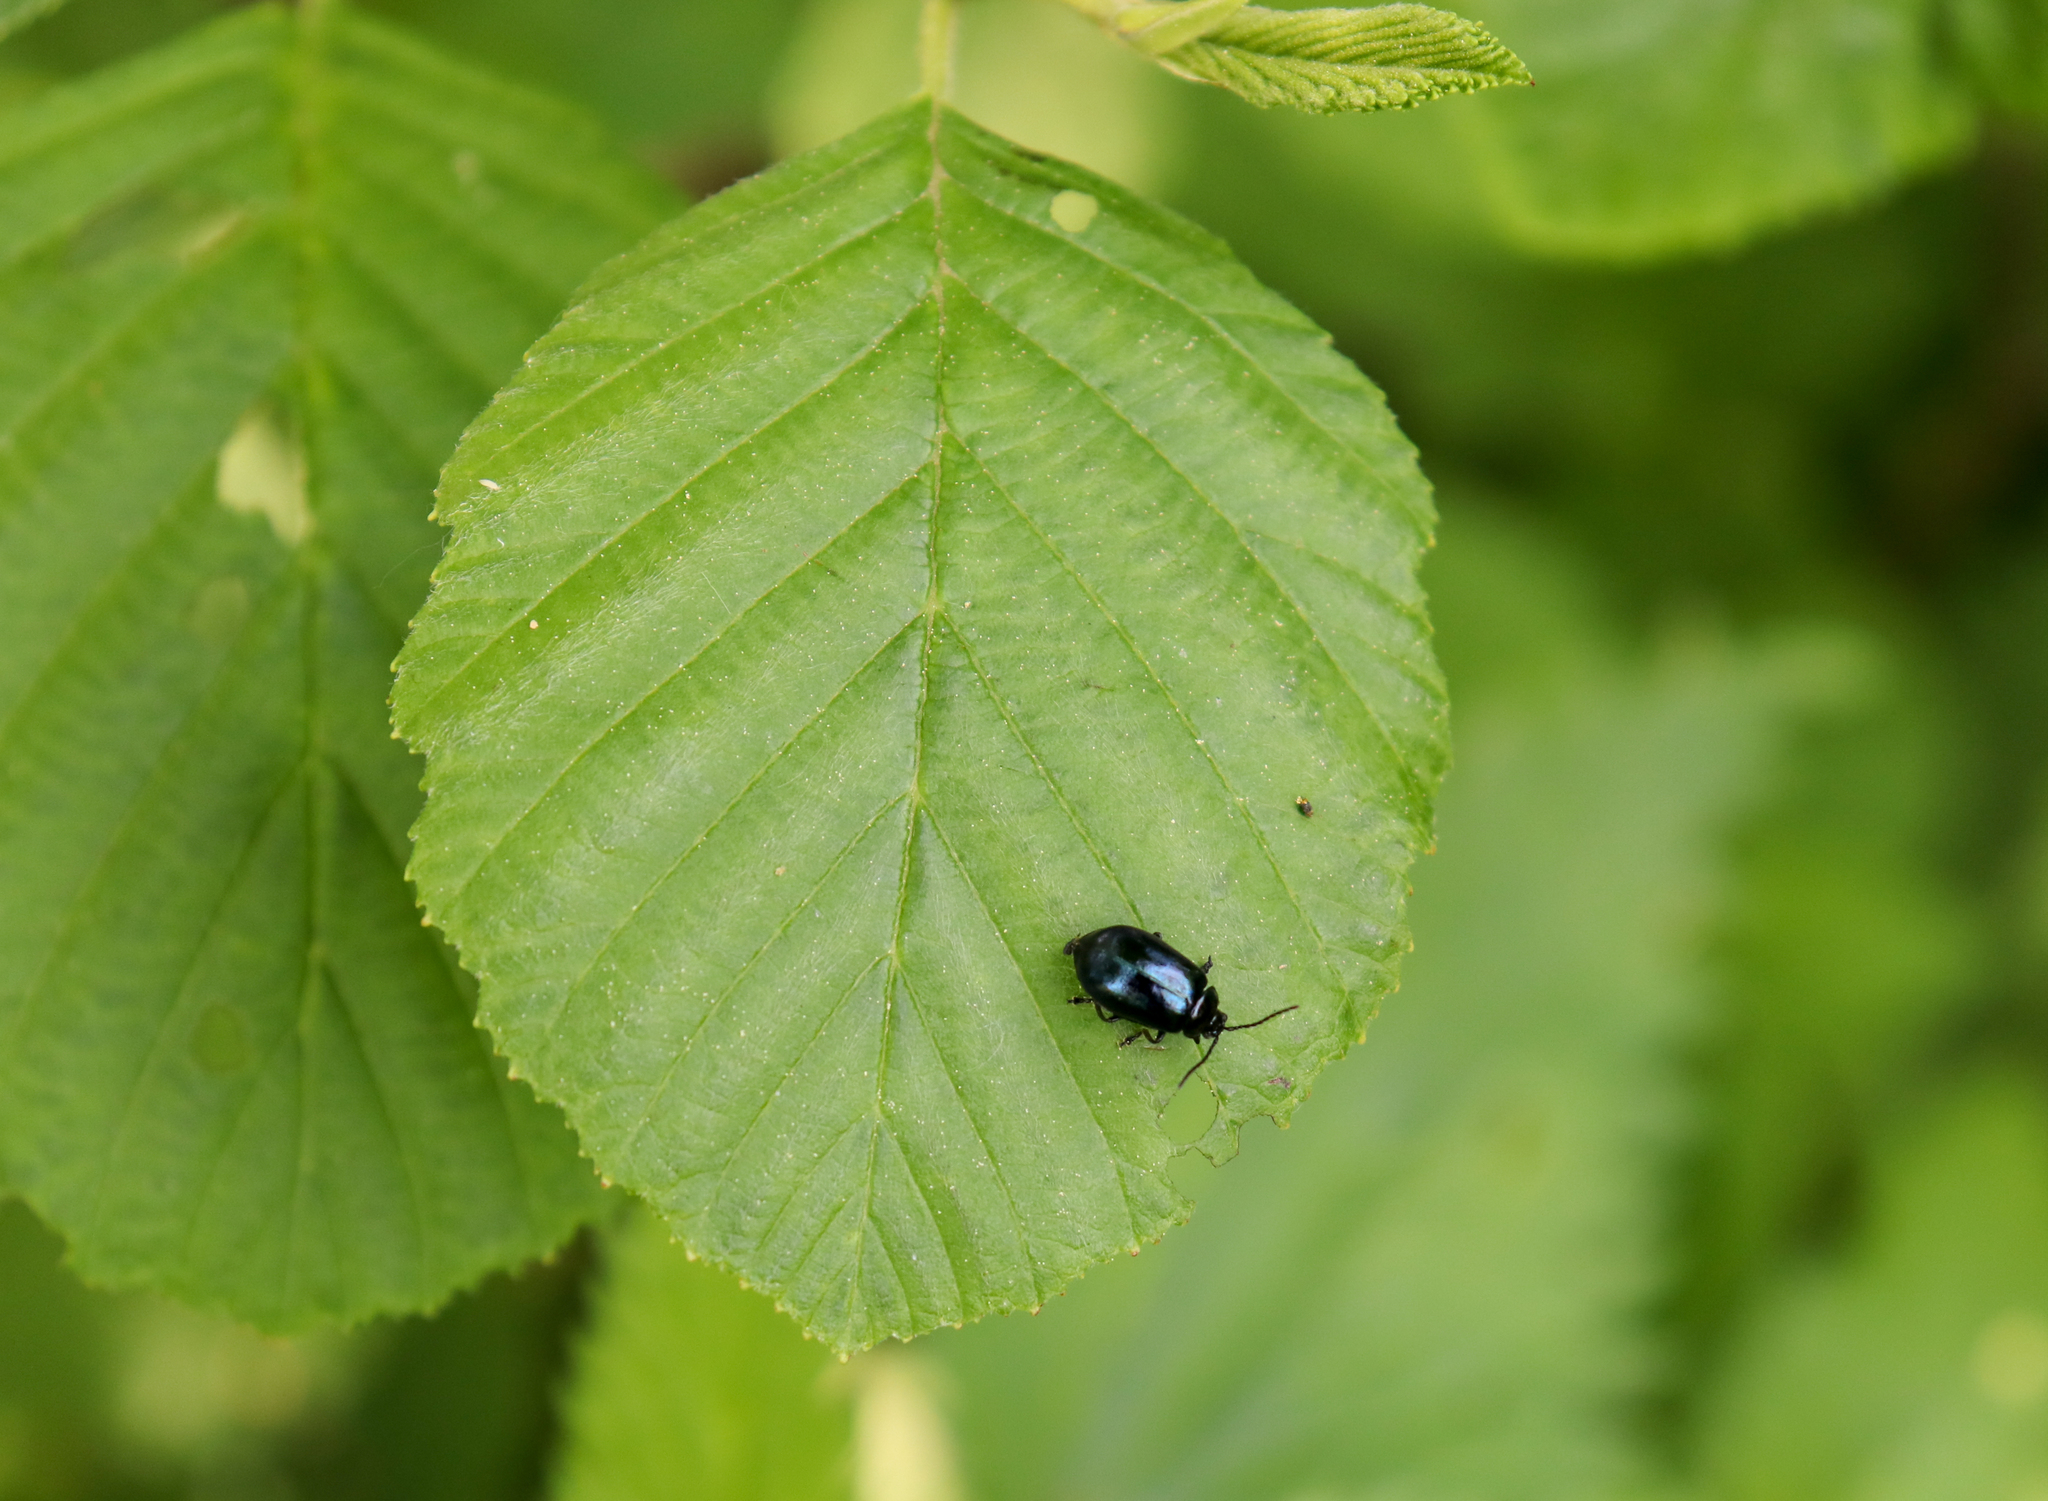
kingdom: Animalia
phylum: Arthropoda
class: Insecta
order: Coleoptera
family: Chrysomelidae
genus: Agelastica
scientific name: Agelastica alni
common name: Alder leaf beetle
